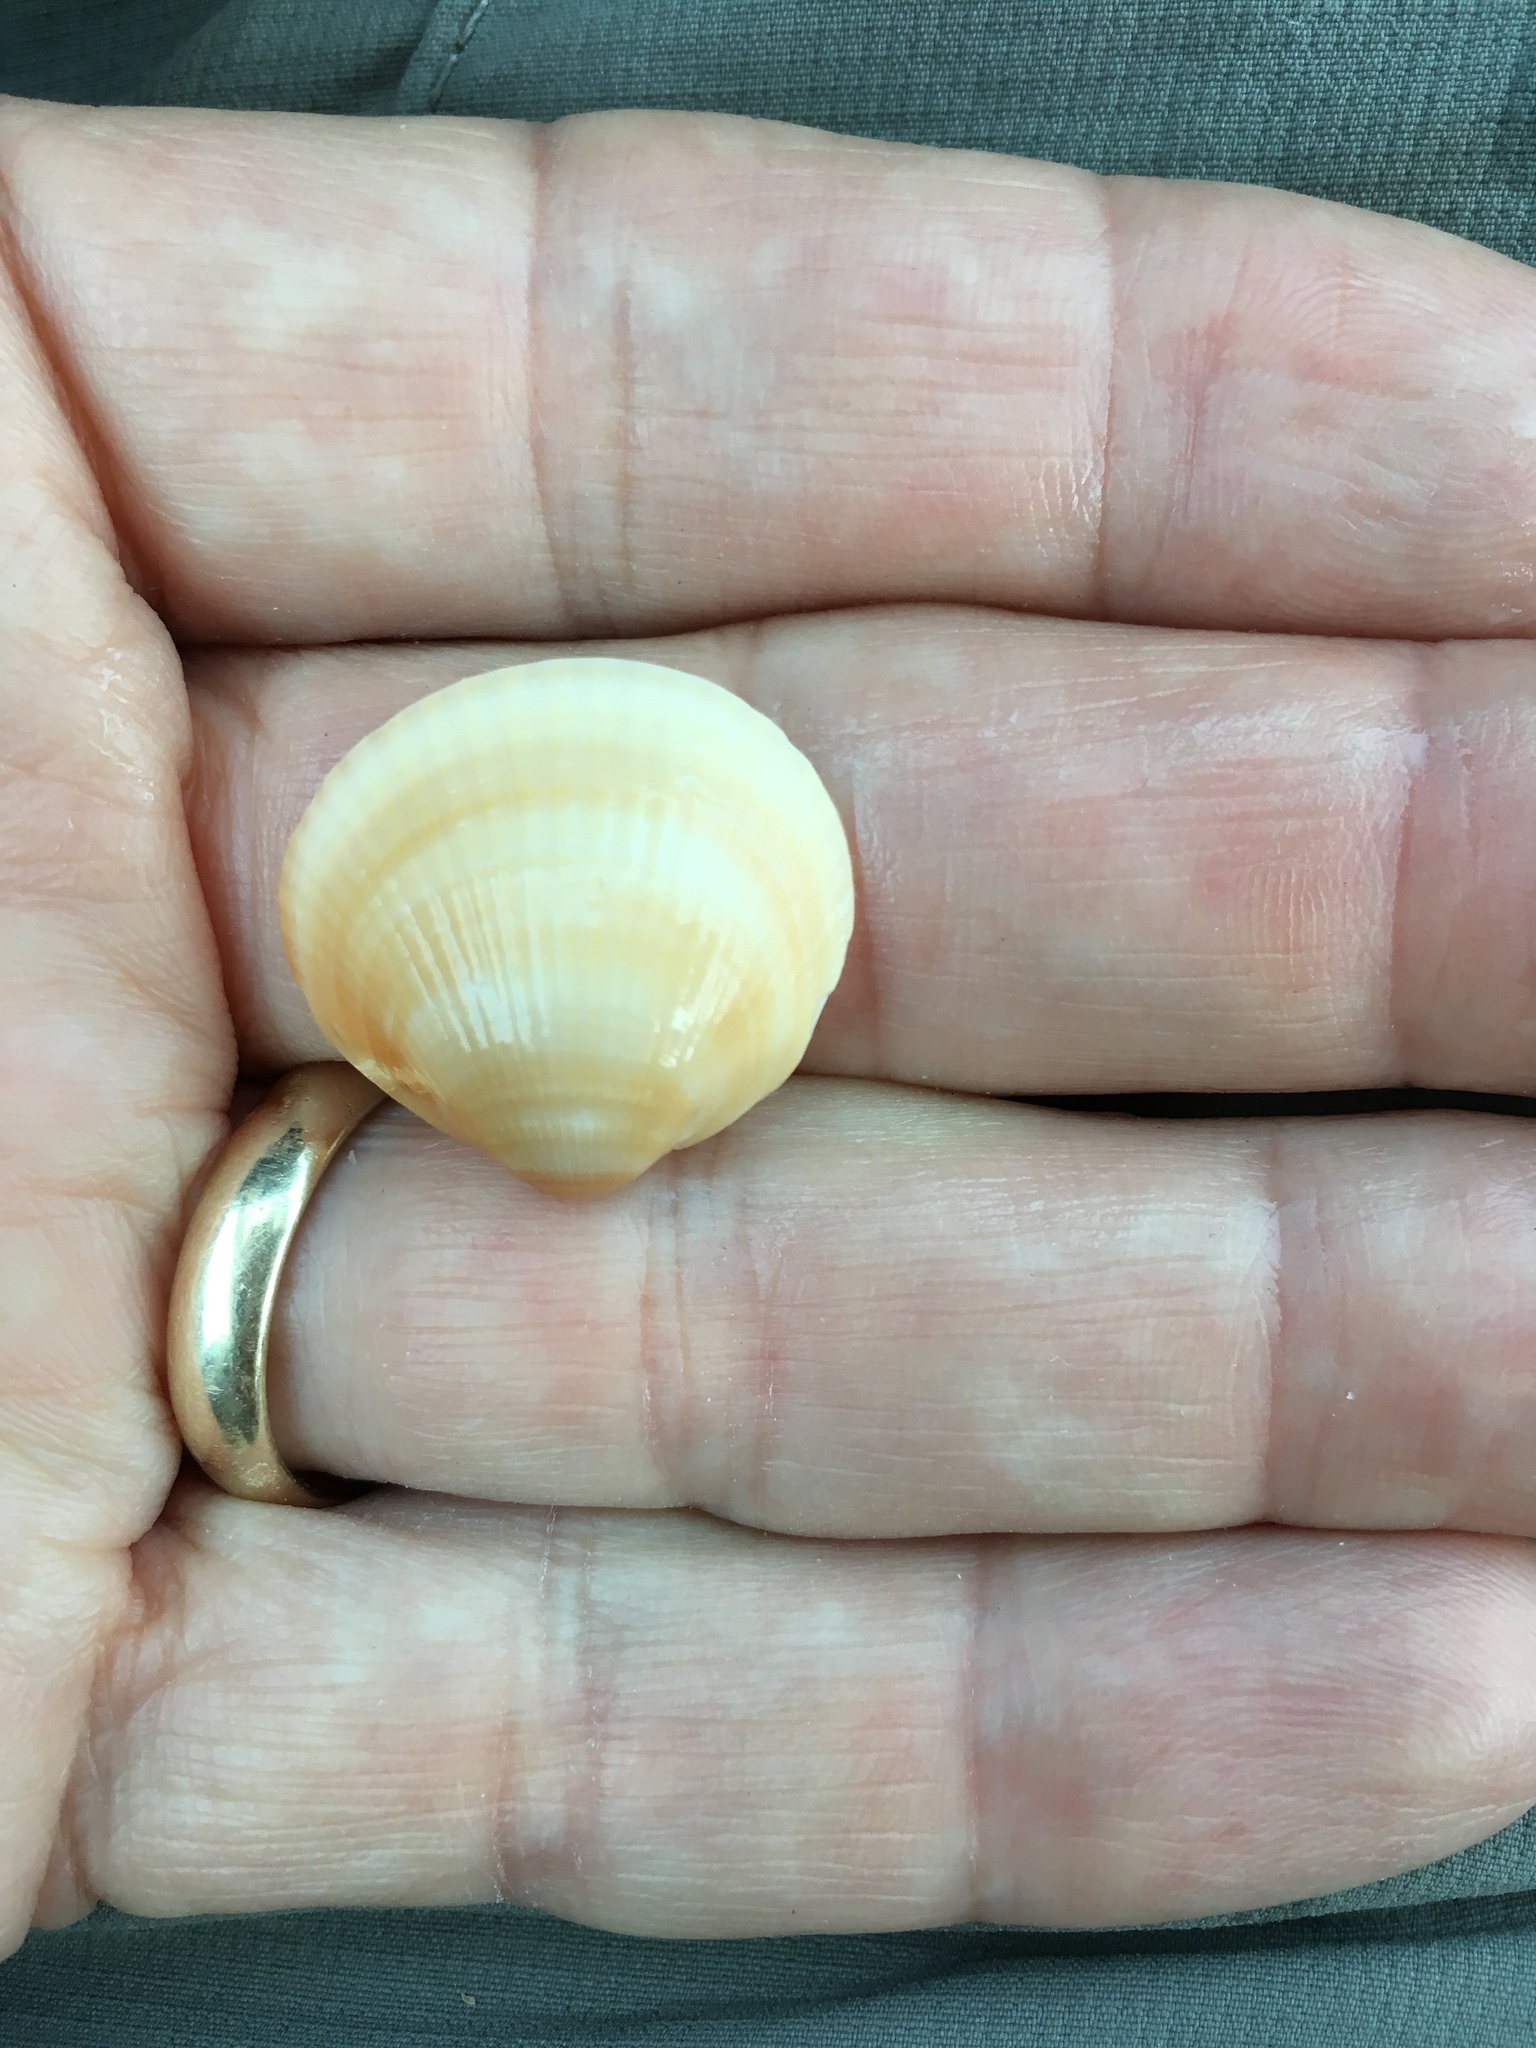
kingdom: Animalia
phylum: Mollusca
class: Bivalvia
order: Arcida
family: Glycymerididae
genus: Glycymeris
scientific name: Glycymeris spectralis
